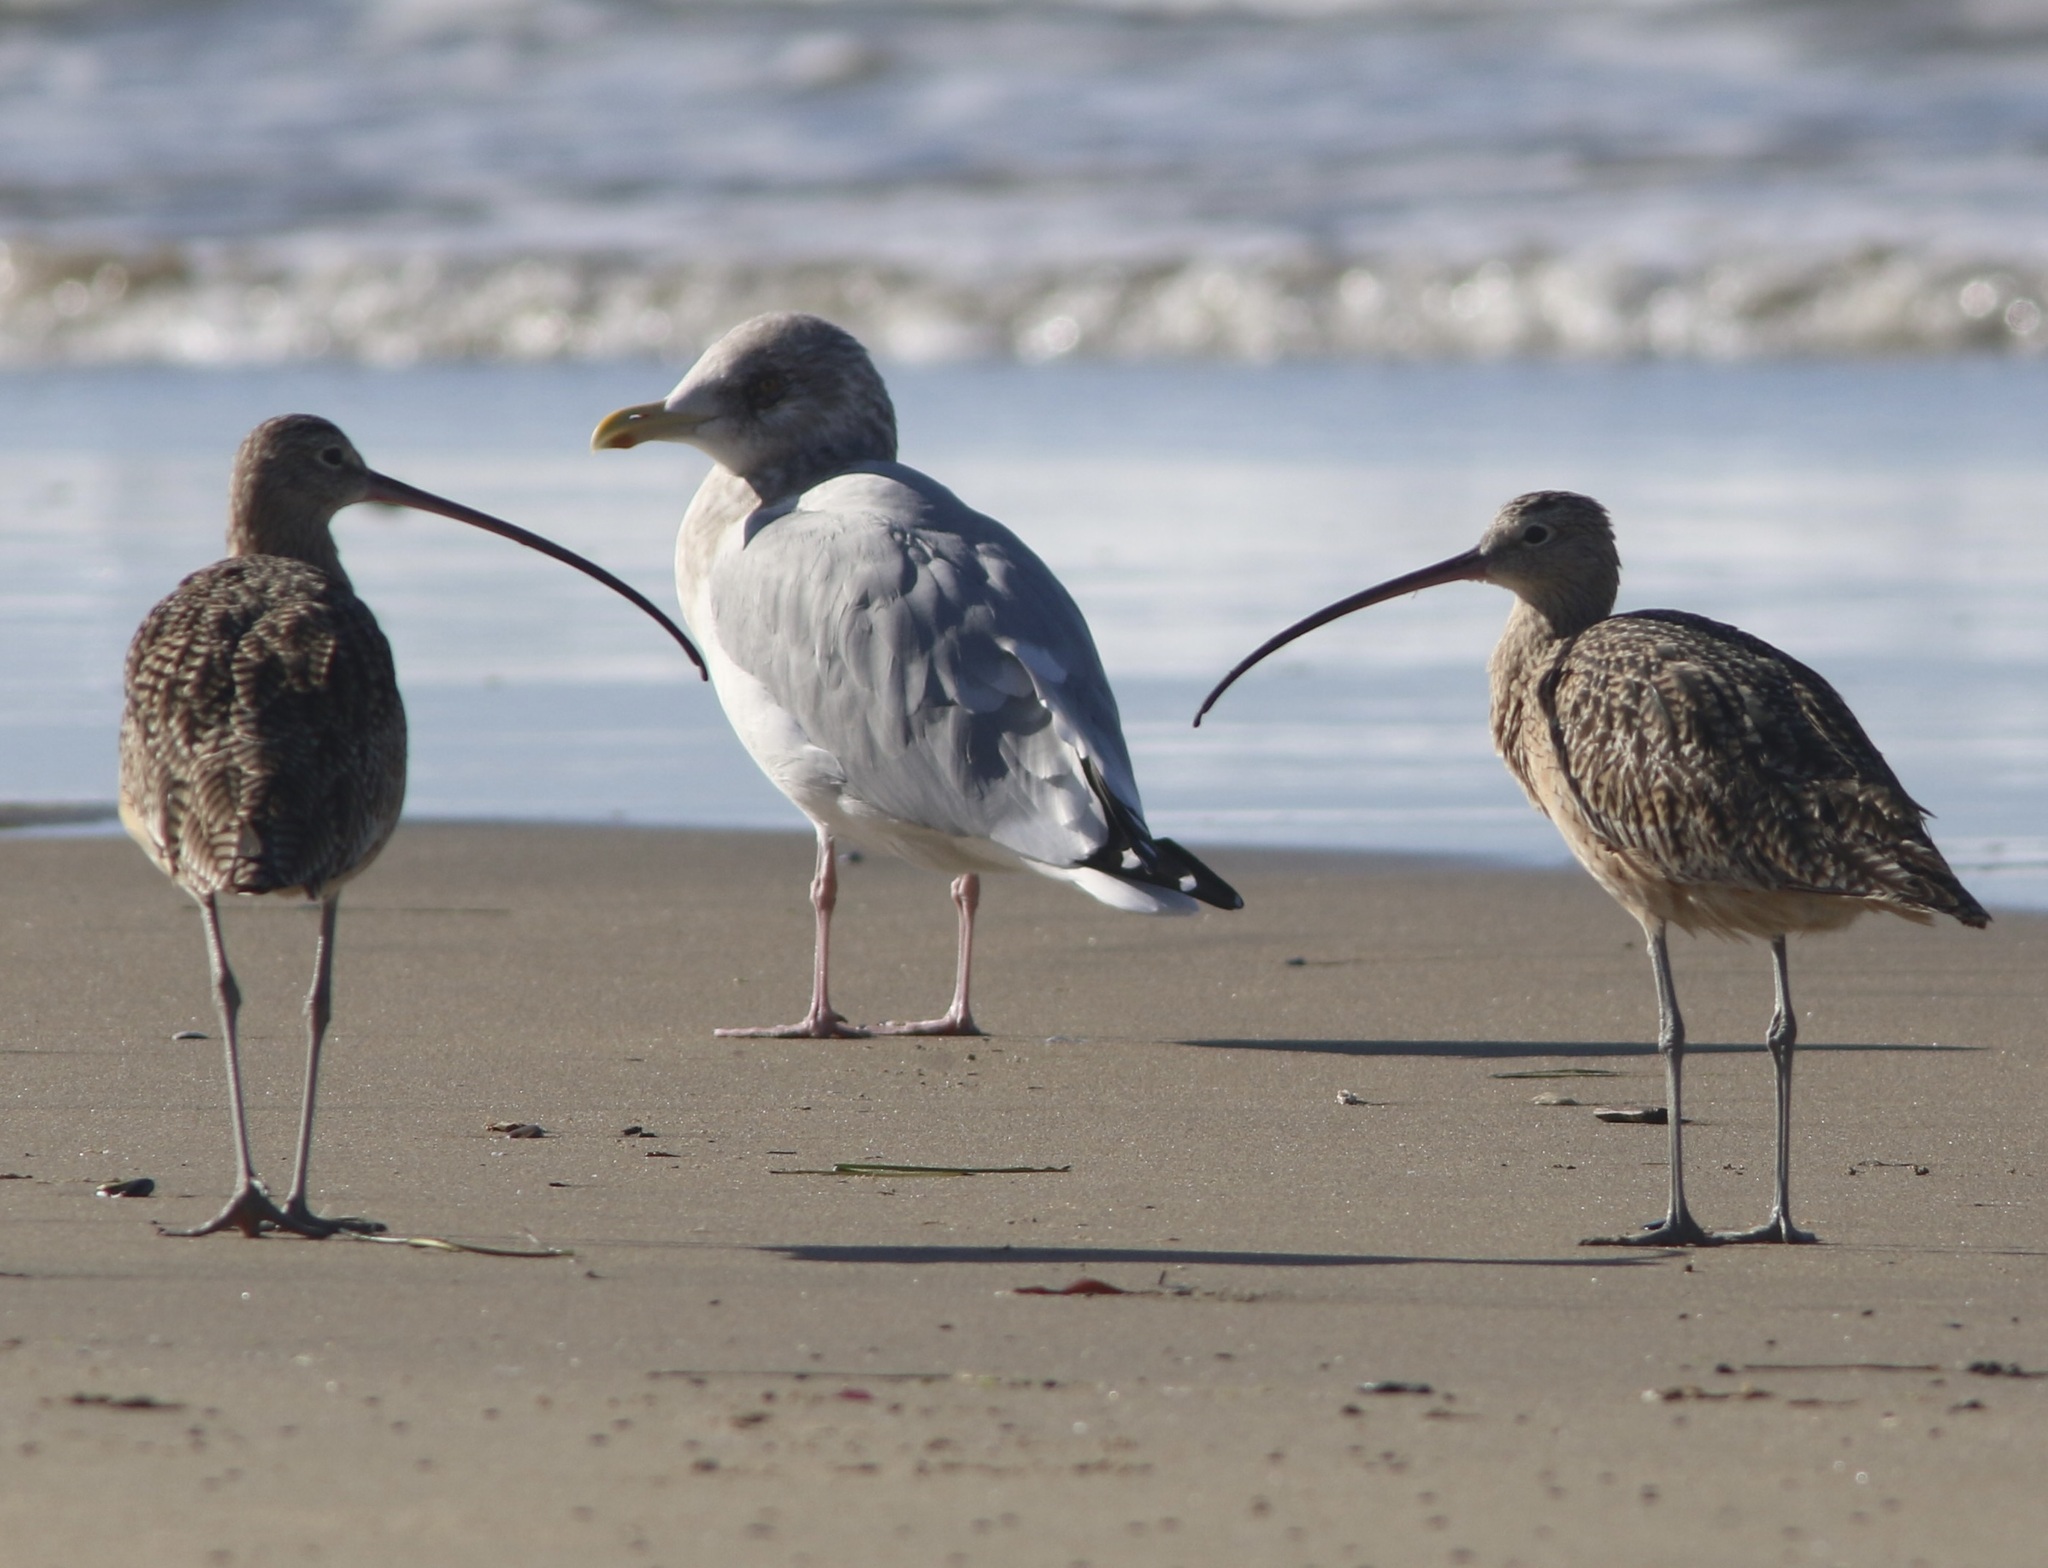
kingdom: Animalia
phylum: Chordata
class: Aves
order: Charadriiformes
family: Scolopacidae
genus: Numenius
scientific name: Numenius americanus
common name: Long-billed curlew
